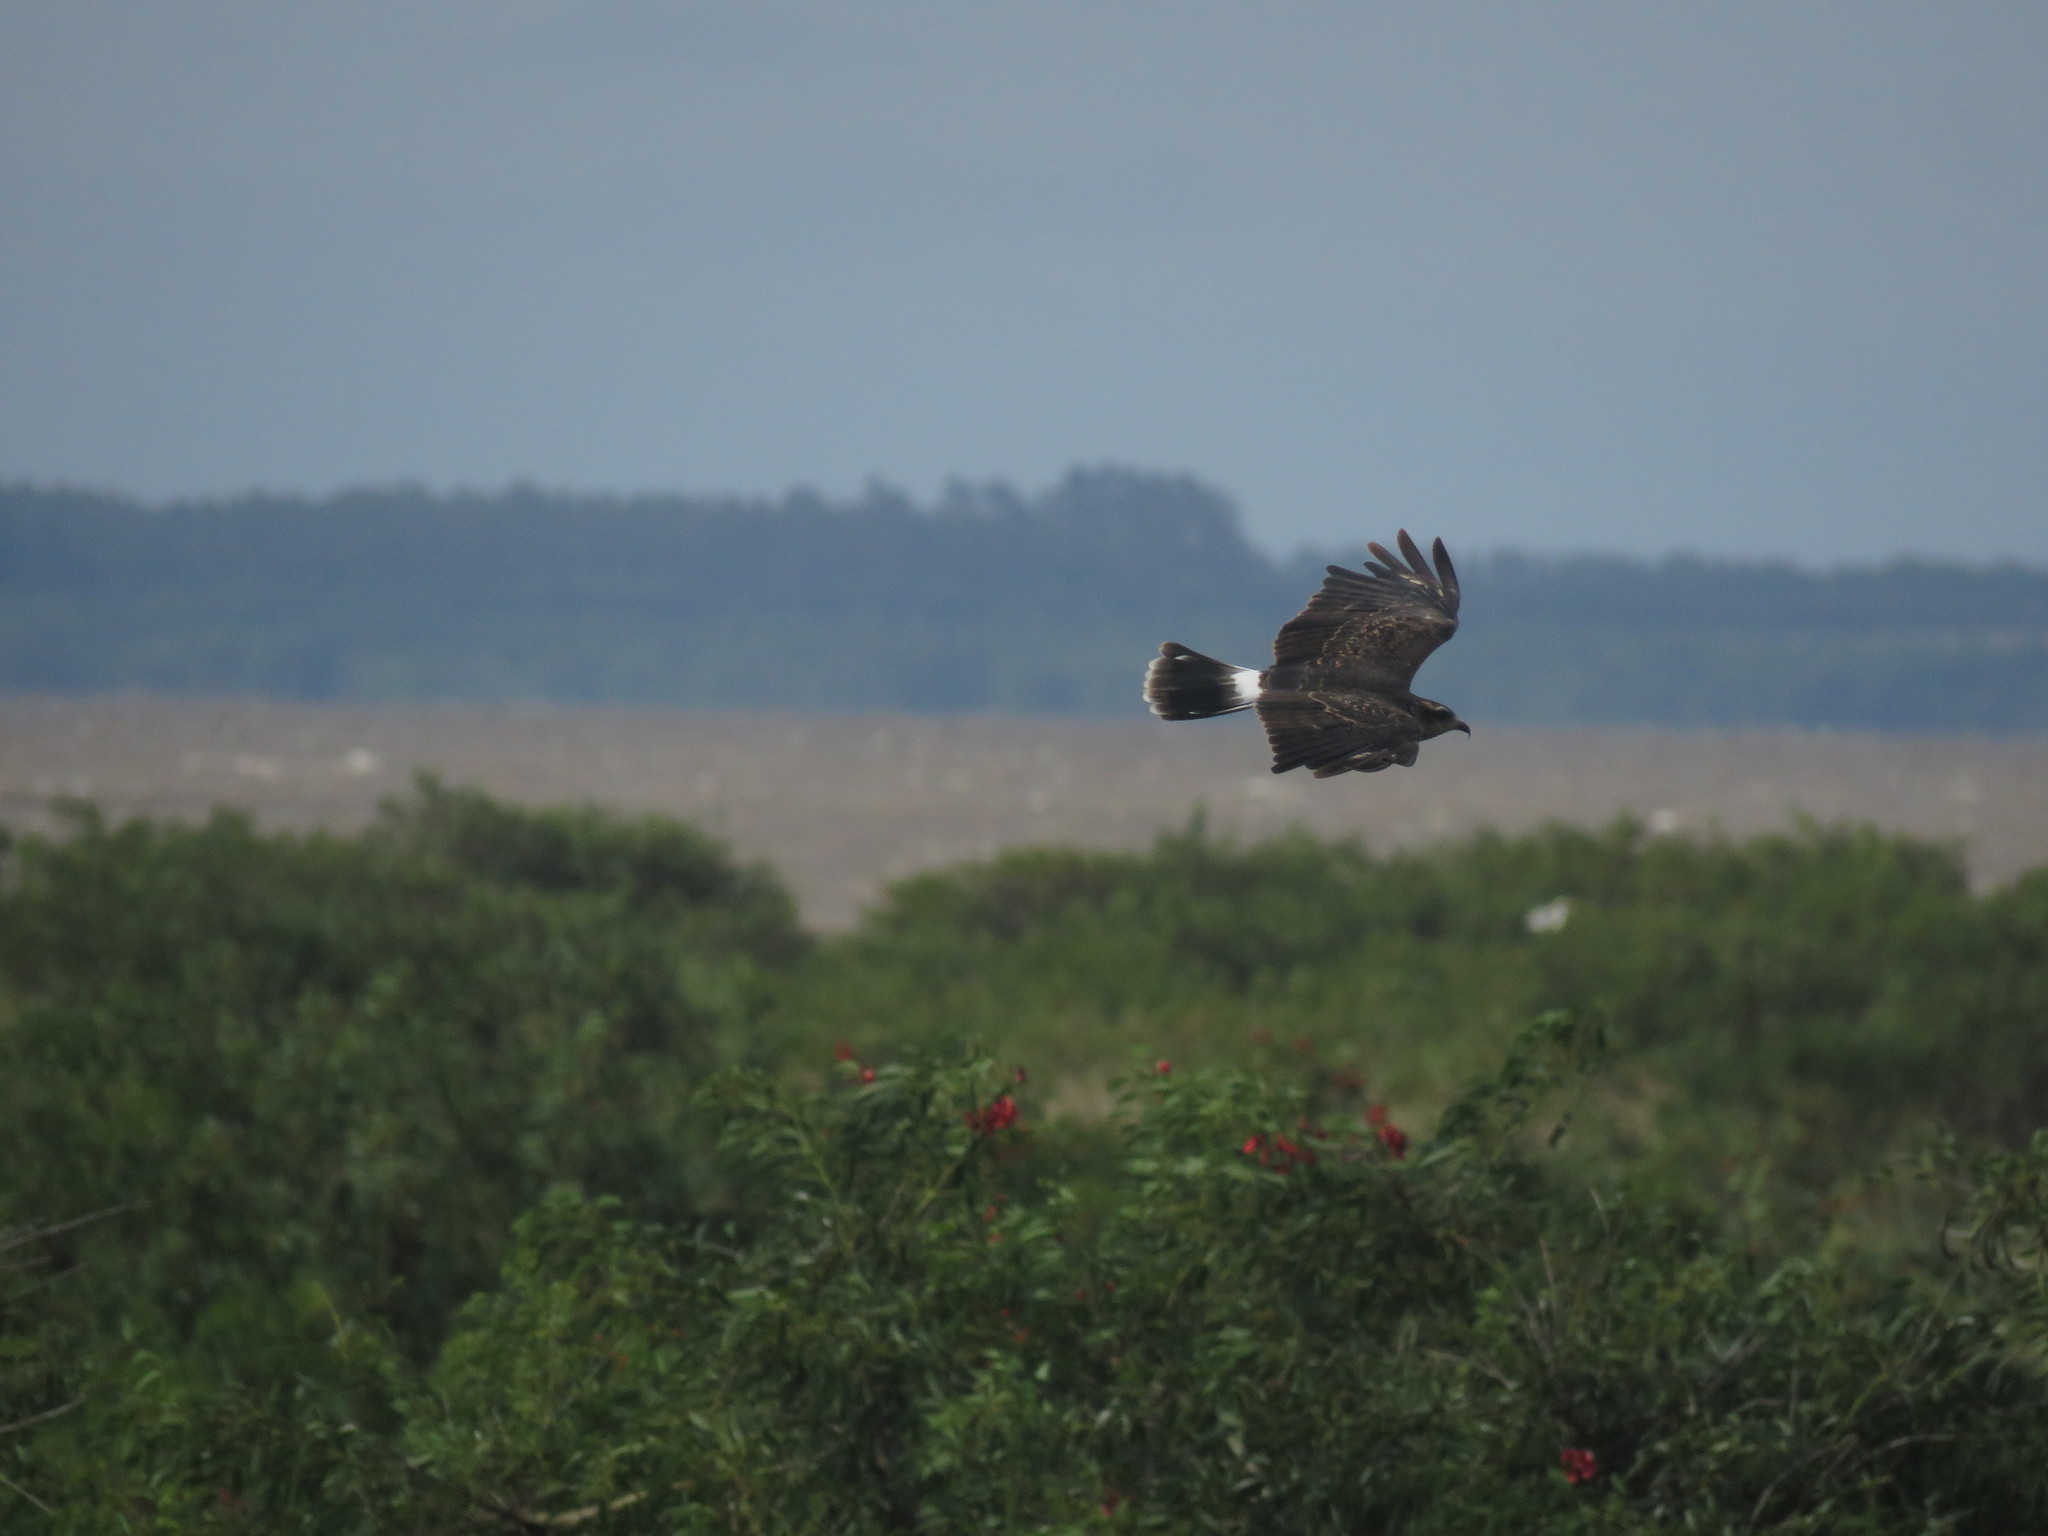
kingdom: Animalia
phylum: Chordata
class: Aves
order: Accipitriformes
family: Accipitridae
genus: Rostrhamus
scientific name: Rostrhamus sociabilis
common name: Snail kite
